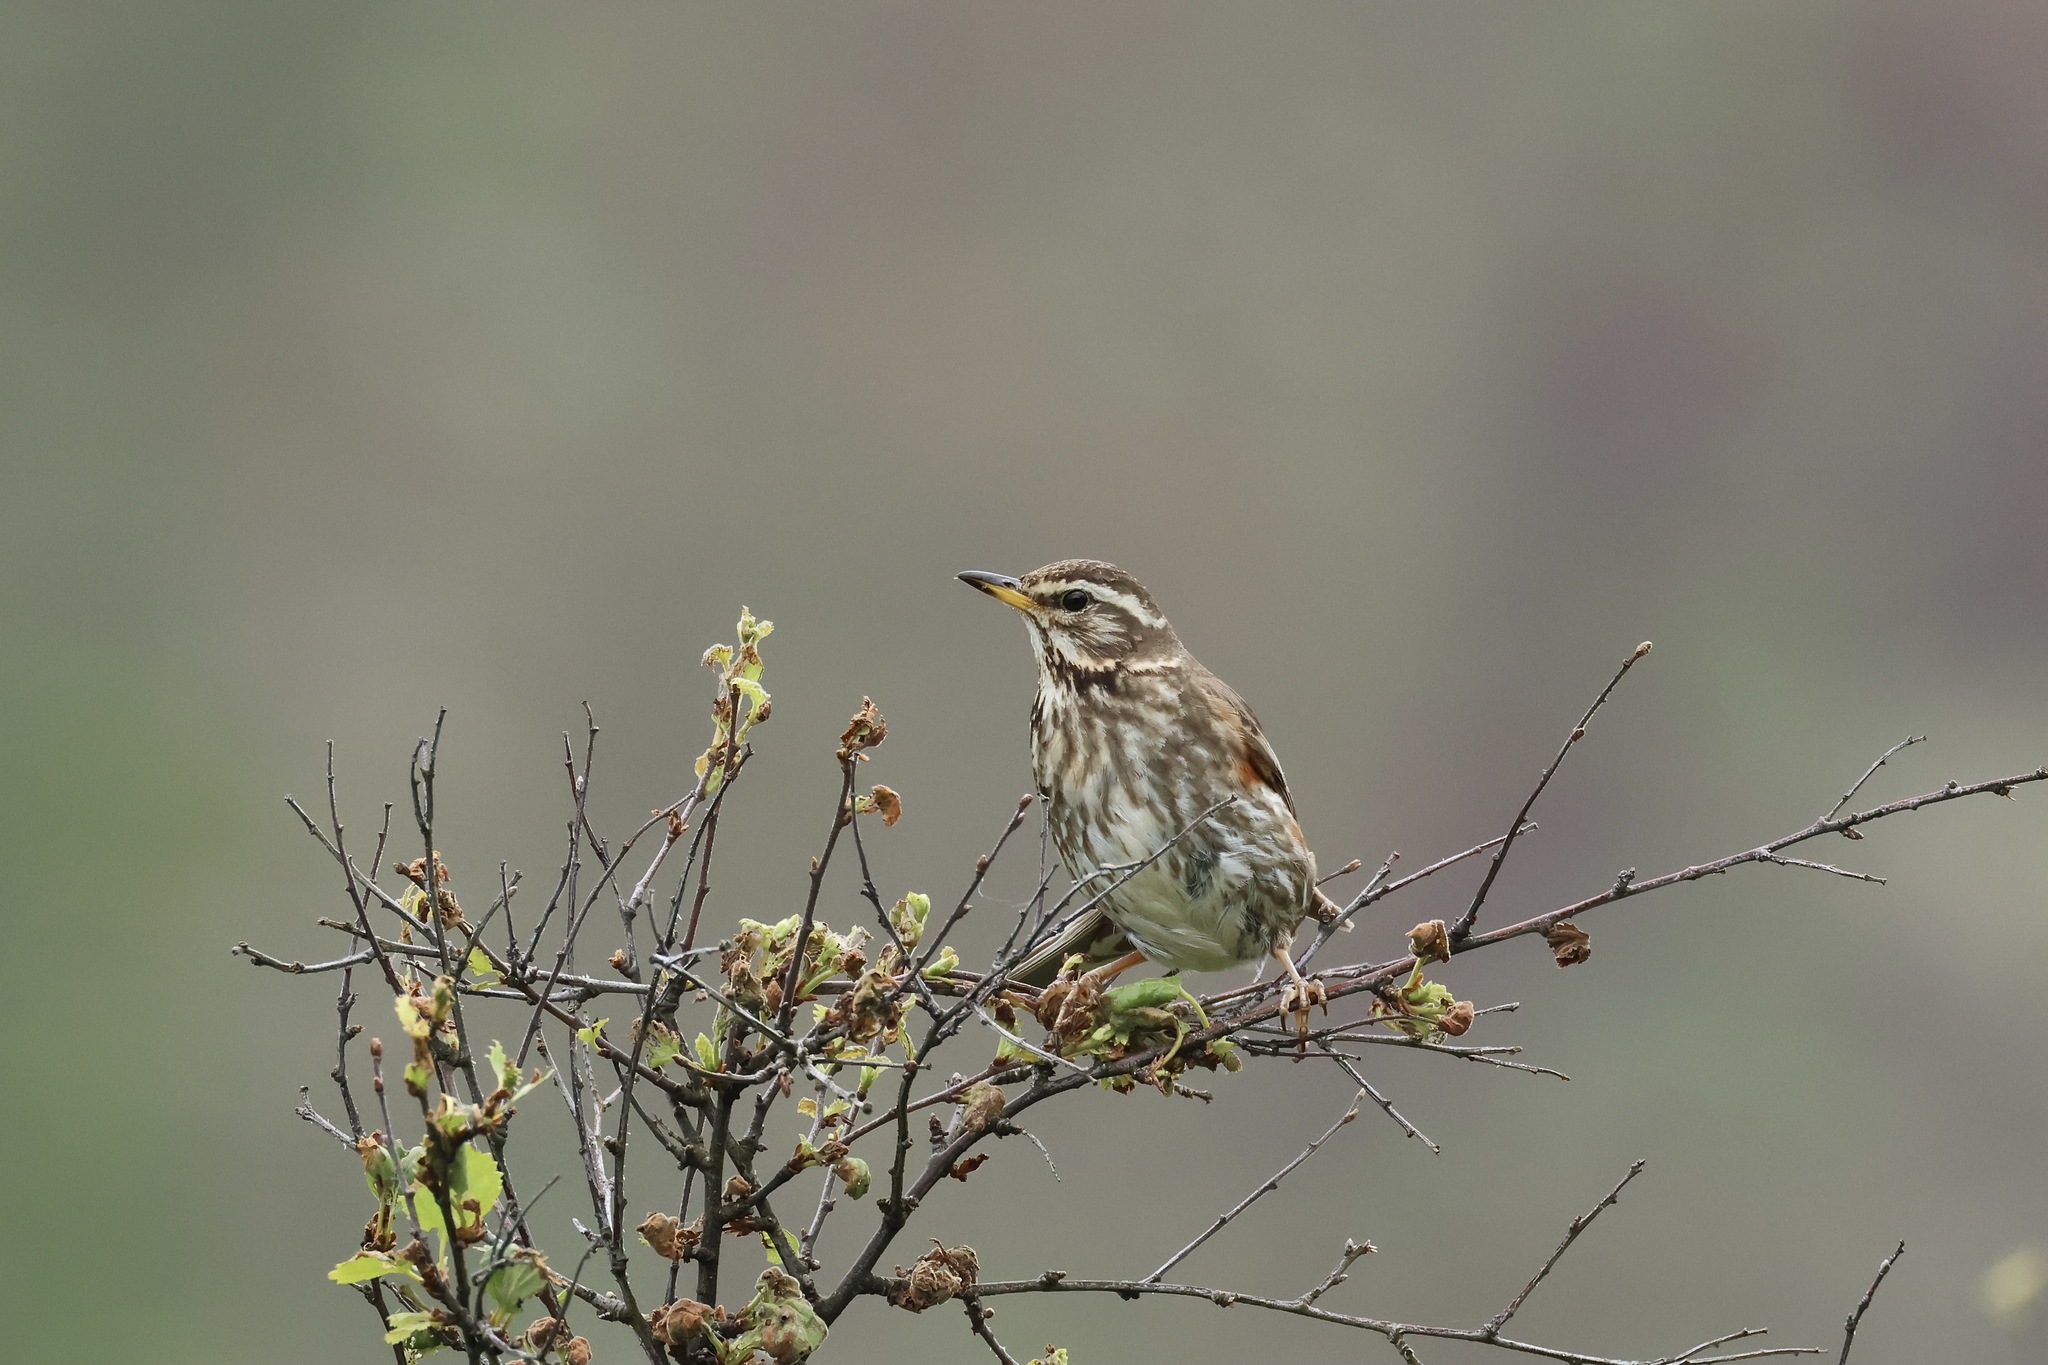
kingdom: Animalia
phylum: Chordata
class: Aves
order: Passeriformes
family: Turdidae
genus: Turdus
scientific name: Turdus iliacus
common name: Redwing
